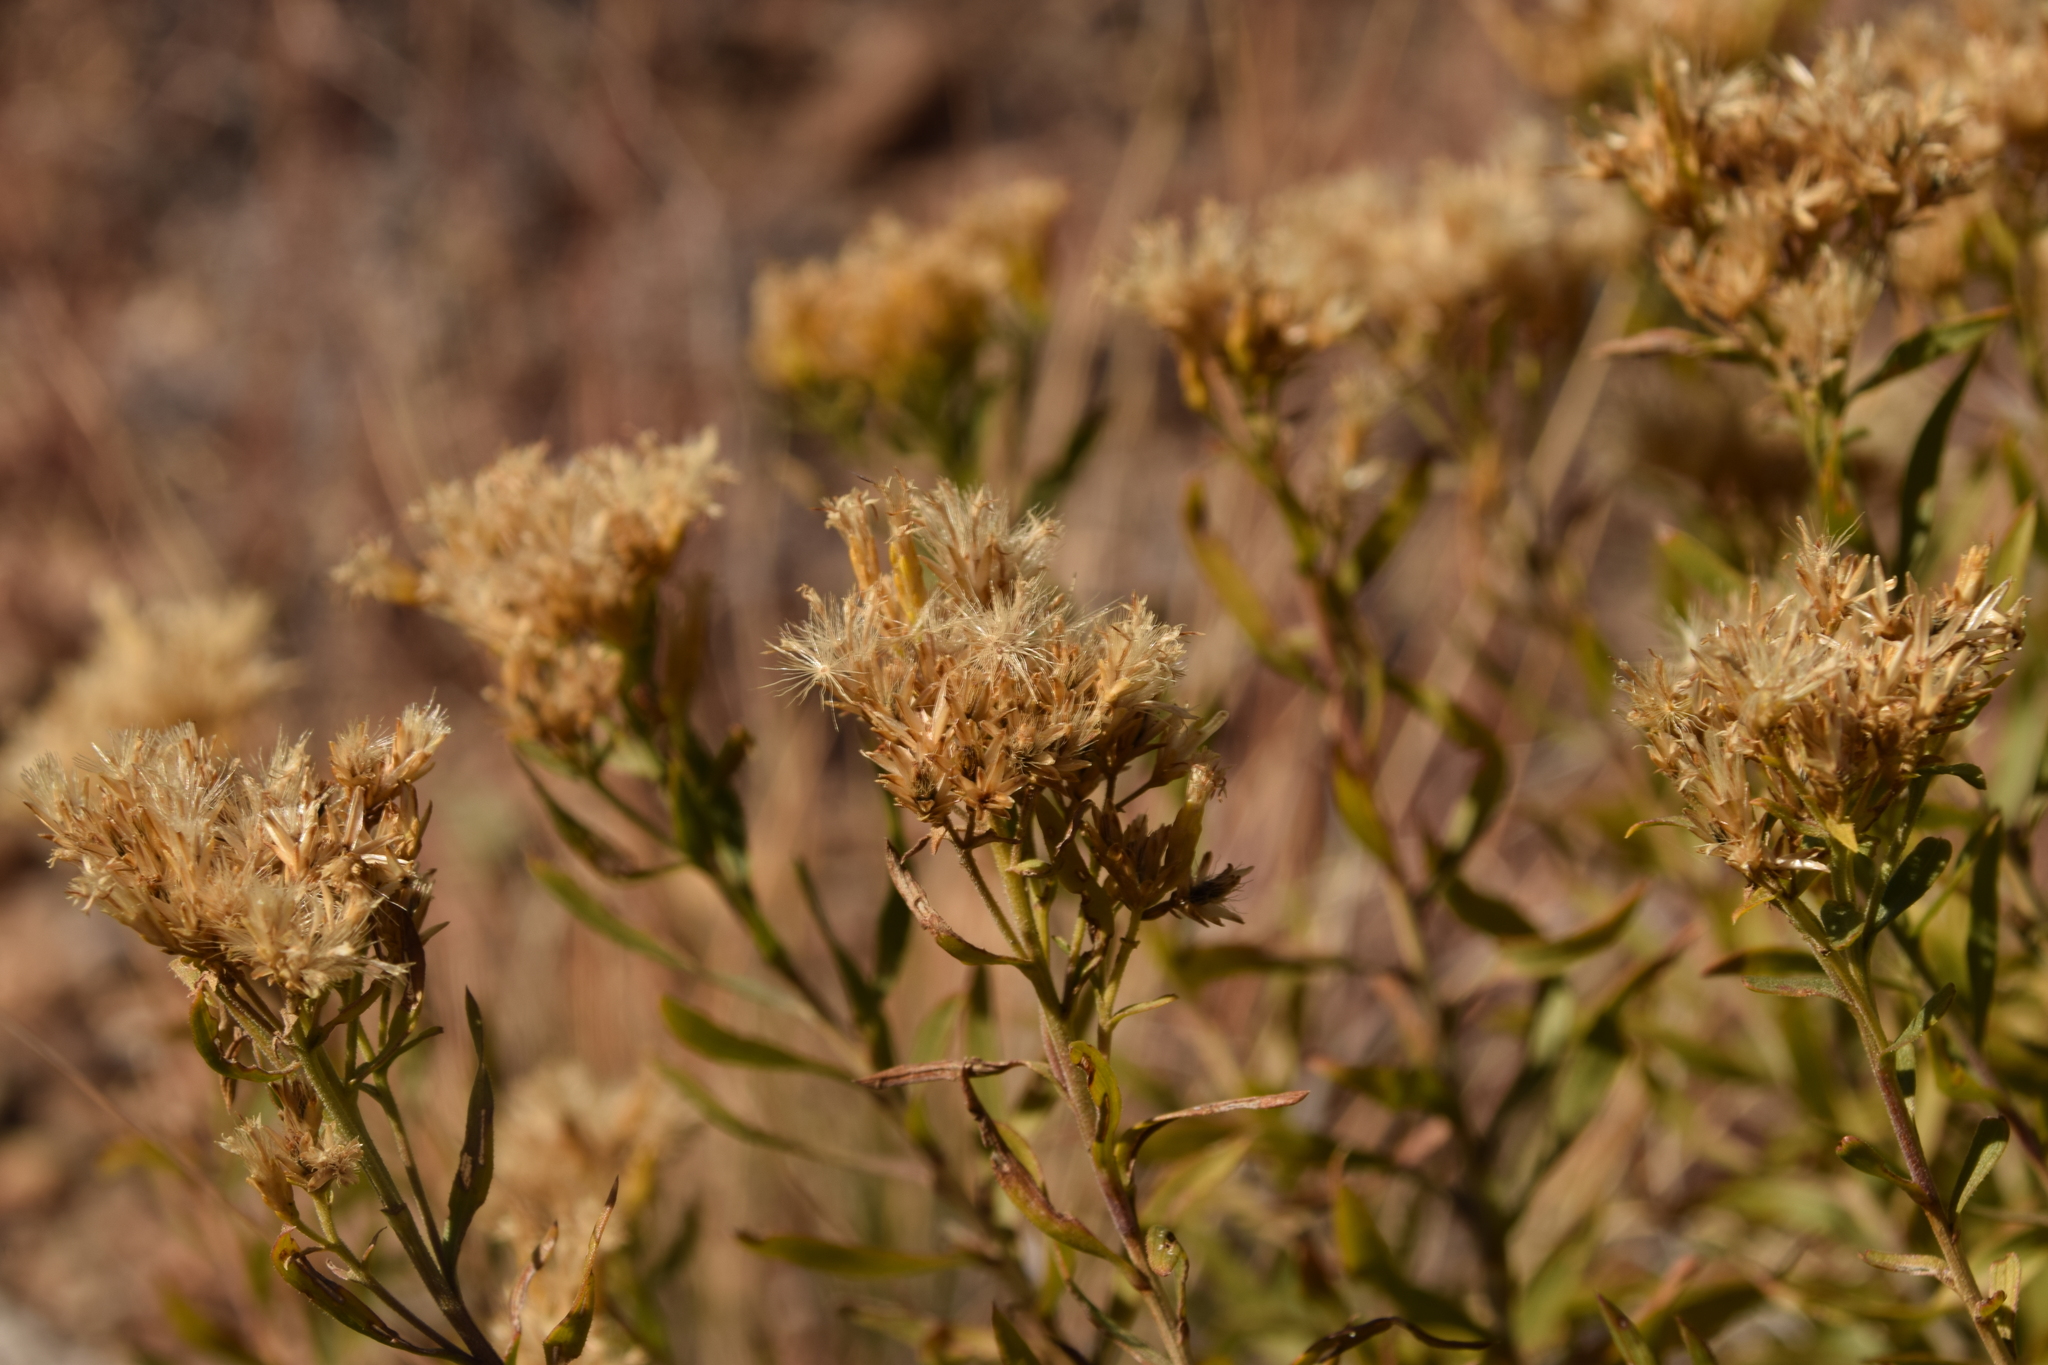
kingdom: Plantae
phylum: Tracheophyta
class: Magnoliopsida
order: Asterales
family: Asteraceae
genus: Chrysothamnus
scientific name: Chrysothamnus viscidiflorus
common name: Yellow rabbitbrush
